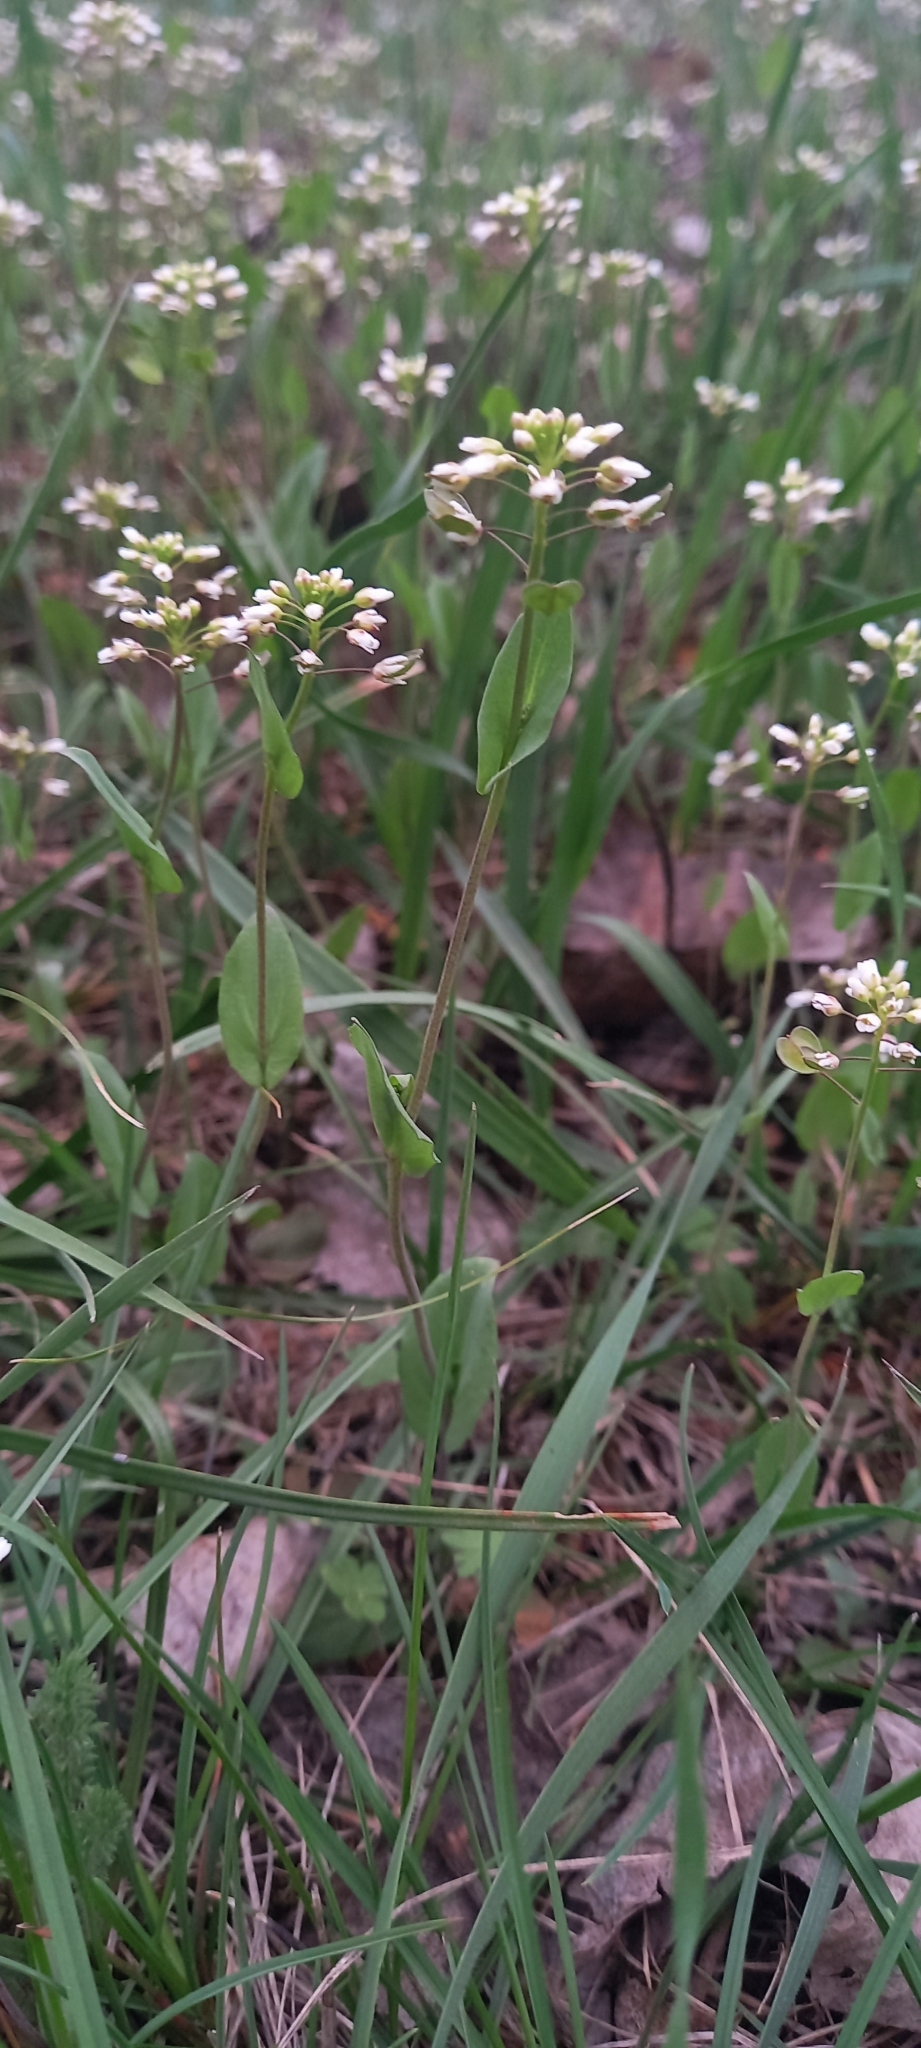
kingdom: Plantae
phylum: Tracheophyta
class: Magnoliopsida
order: Brassicales
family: Brassicaceae
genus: Noccaea
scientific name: Noccaea perfoliata
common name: Perfoliate pennycress
